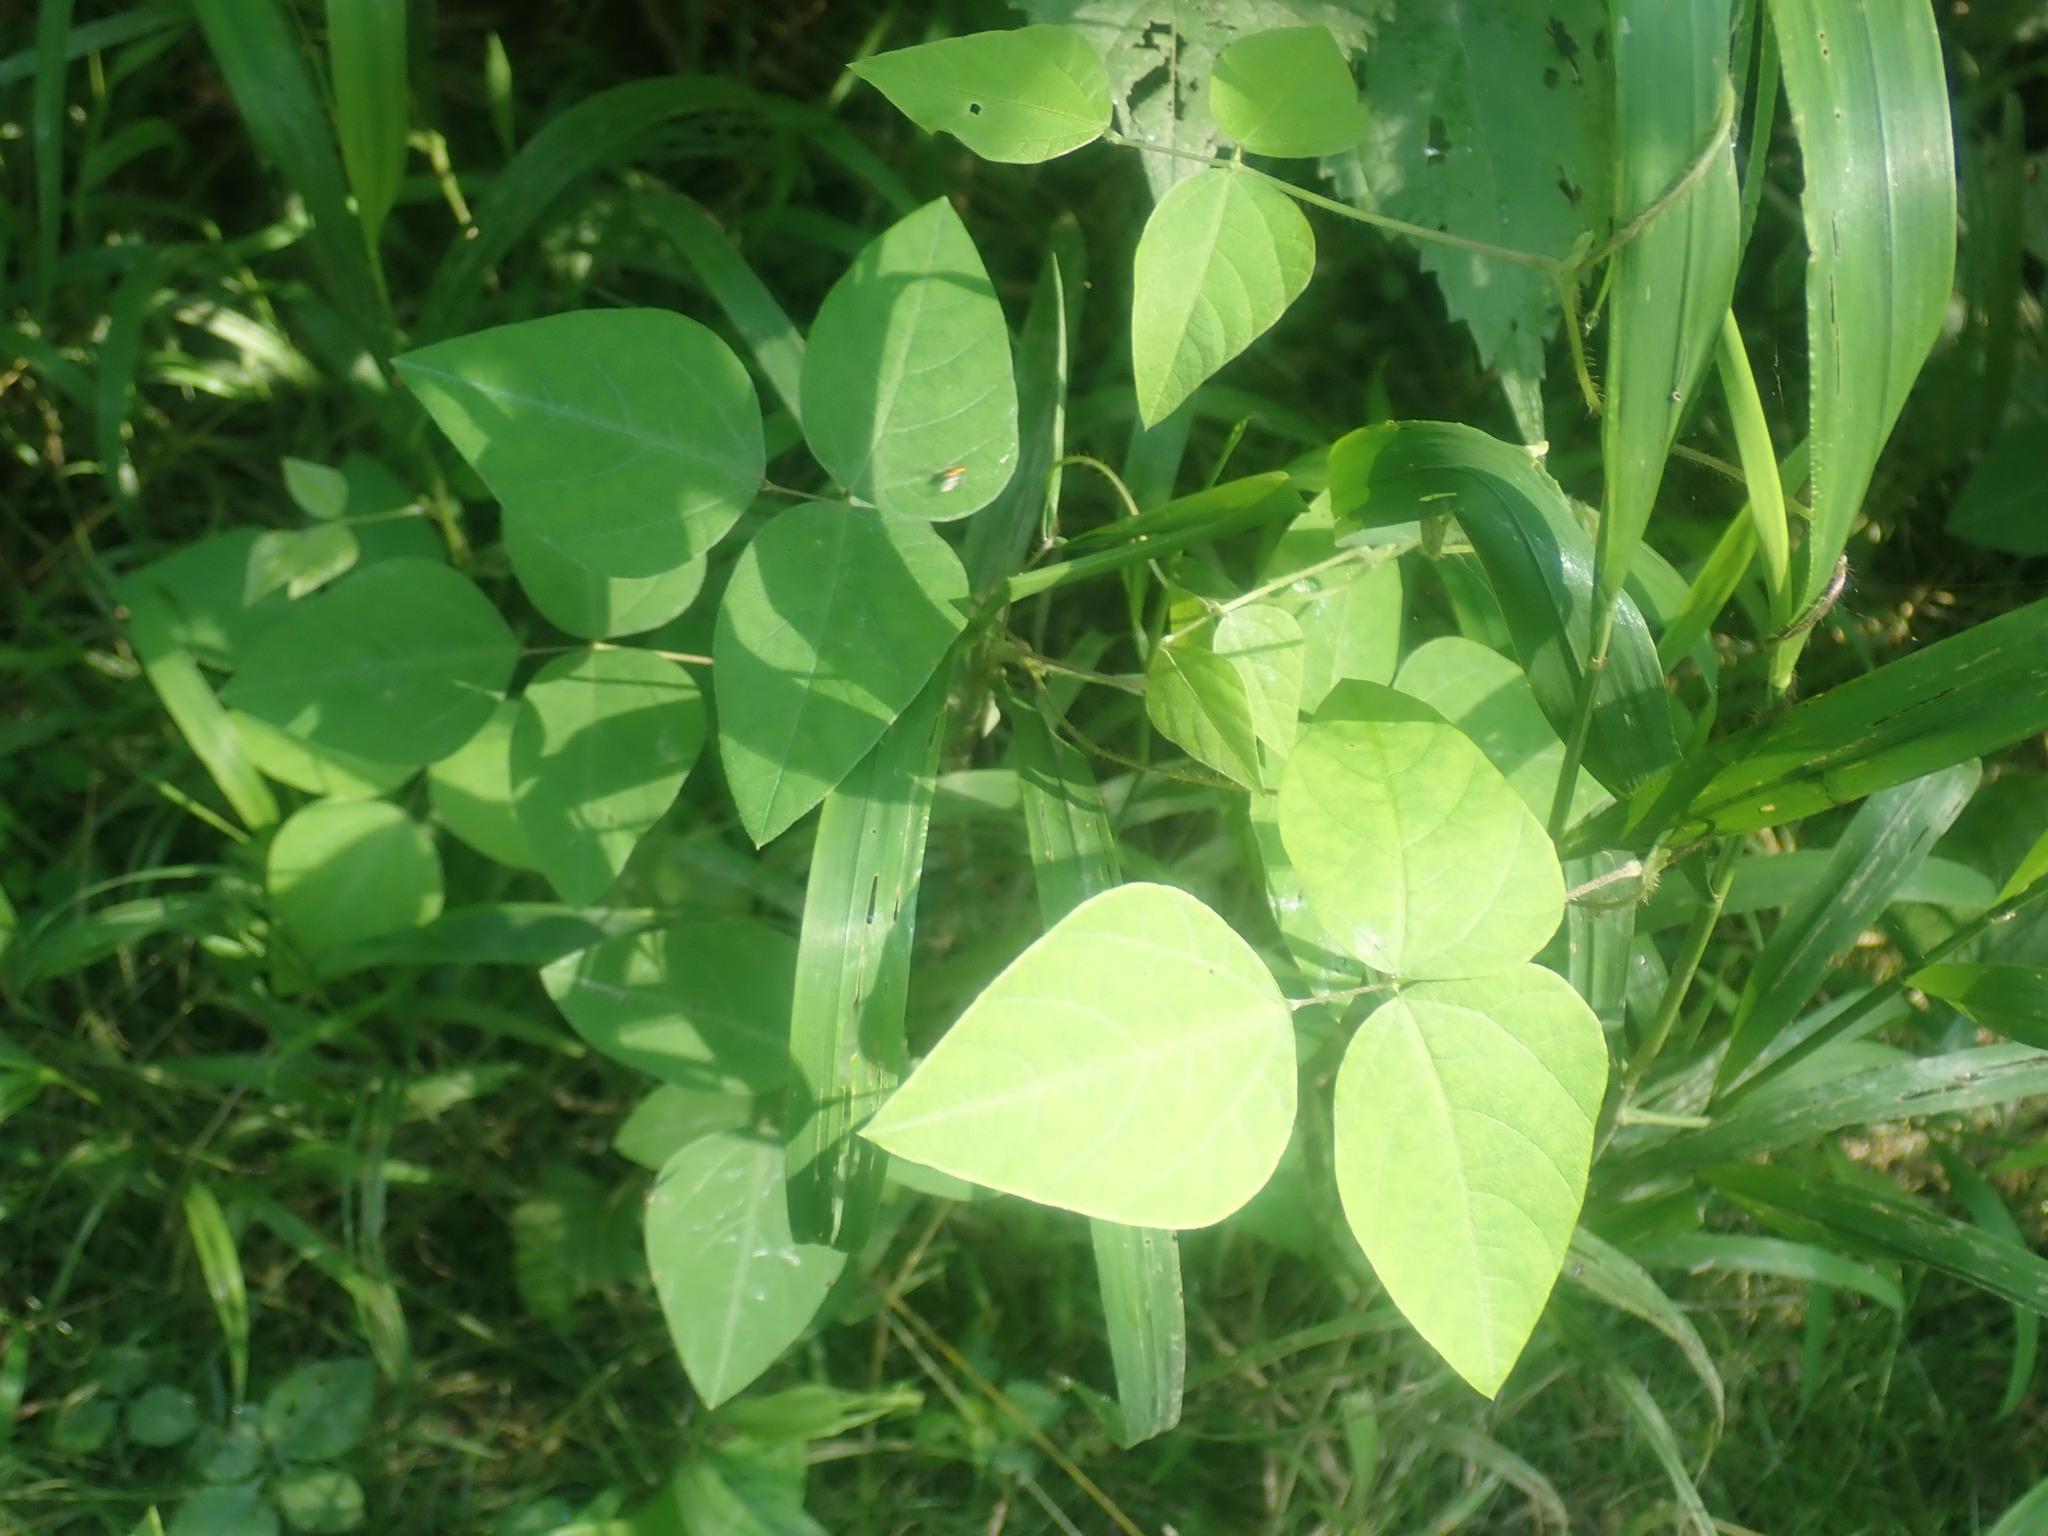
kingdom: Plantae
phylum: Tracheophyta
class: Magnoliopsida
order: Fabales
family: Fabaceae
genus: Amphicarpaea
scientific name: Amphicarpaea bracteata
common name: American hog peanut
